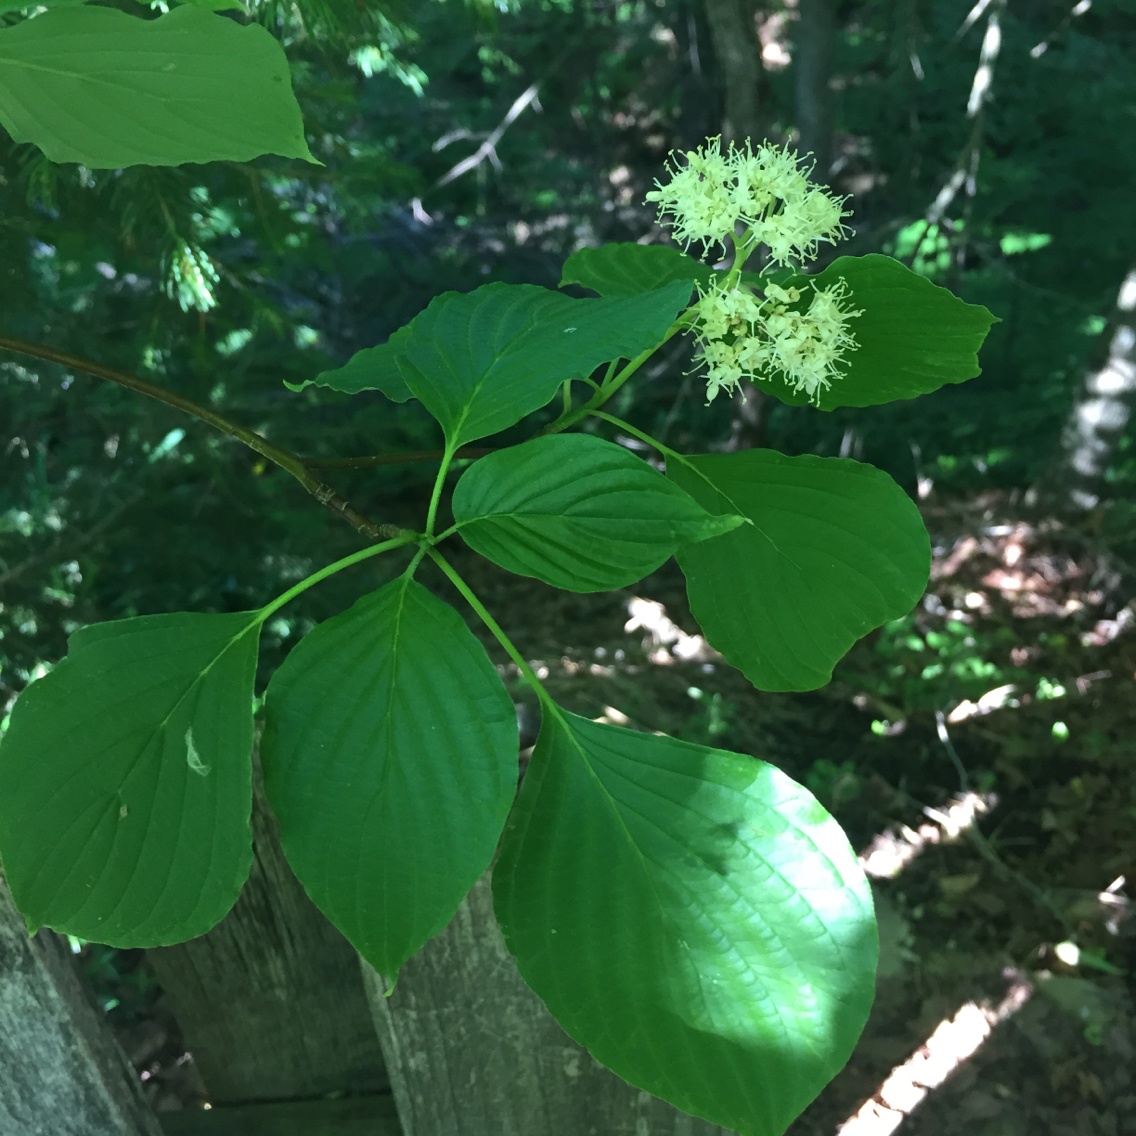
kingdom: Plantae
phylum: Tracheophyta
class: Magnoliopsida
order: Cornales
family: Cornaceae
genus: Cornus
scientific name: Cornus alternifolia
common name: Pagoda dogwood
